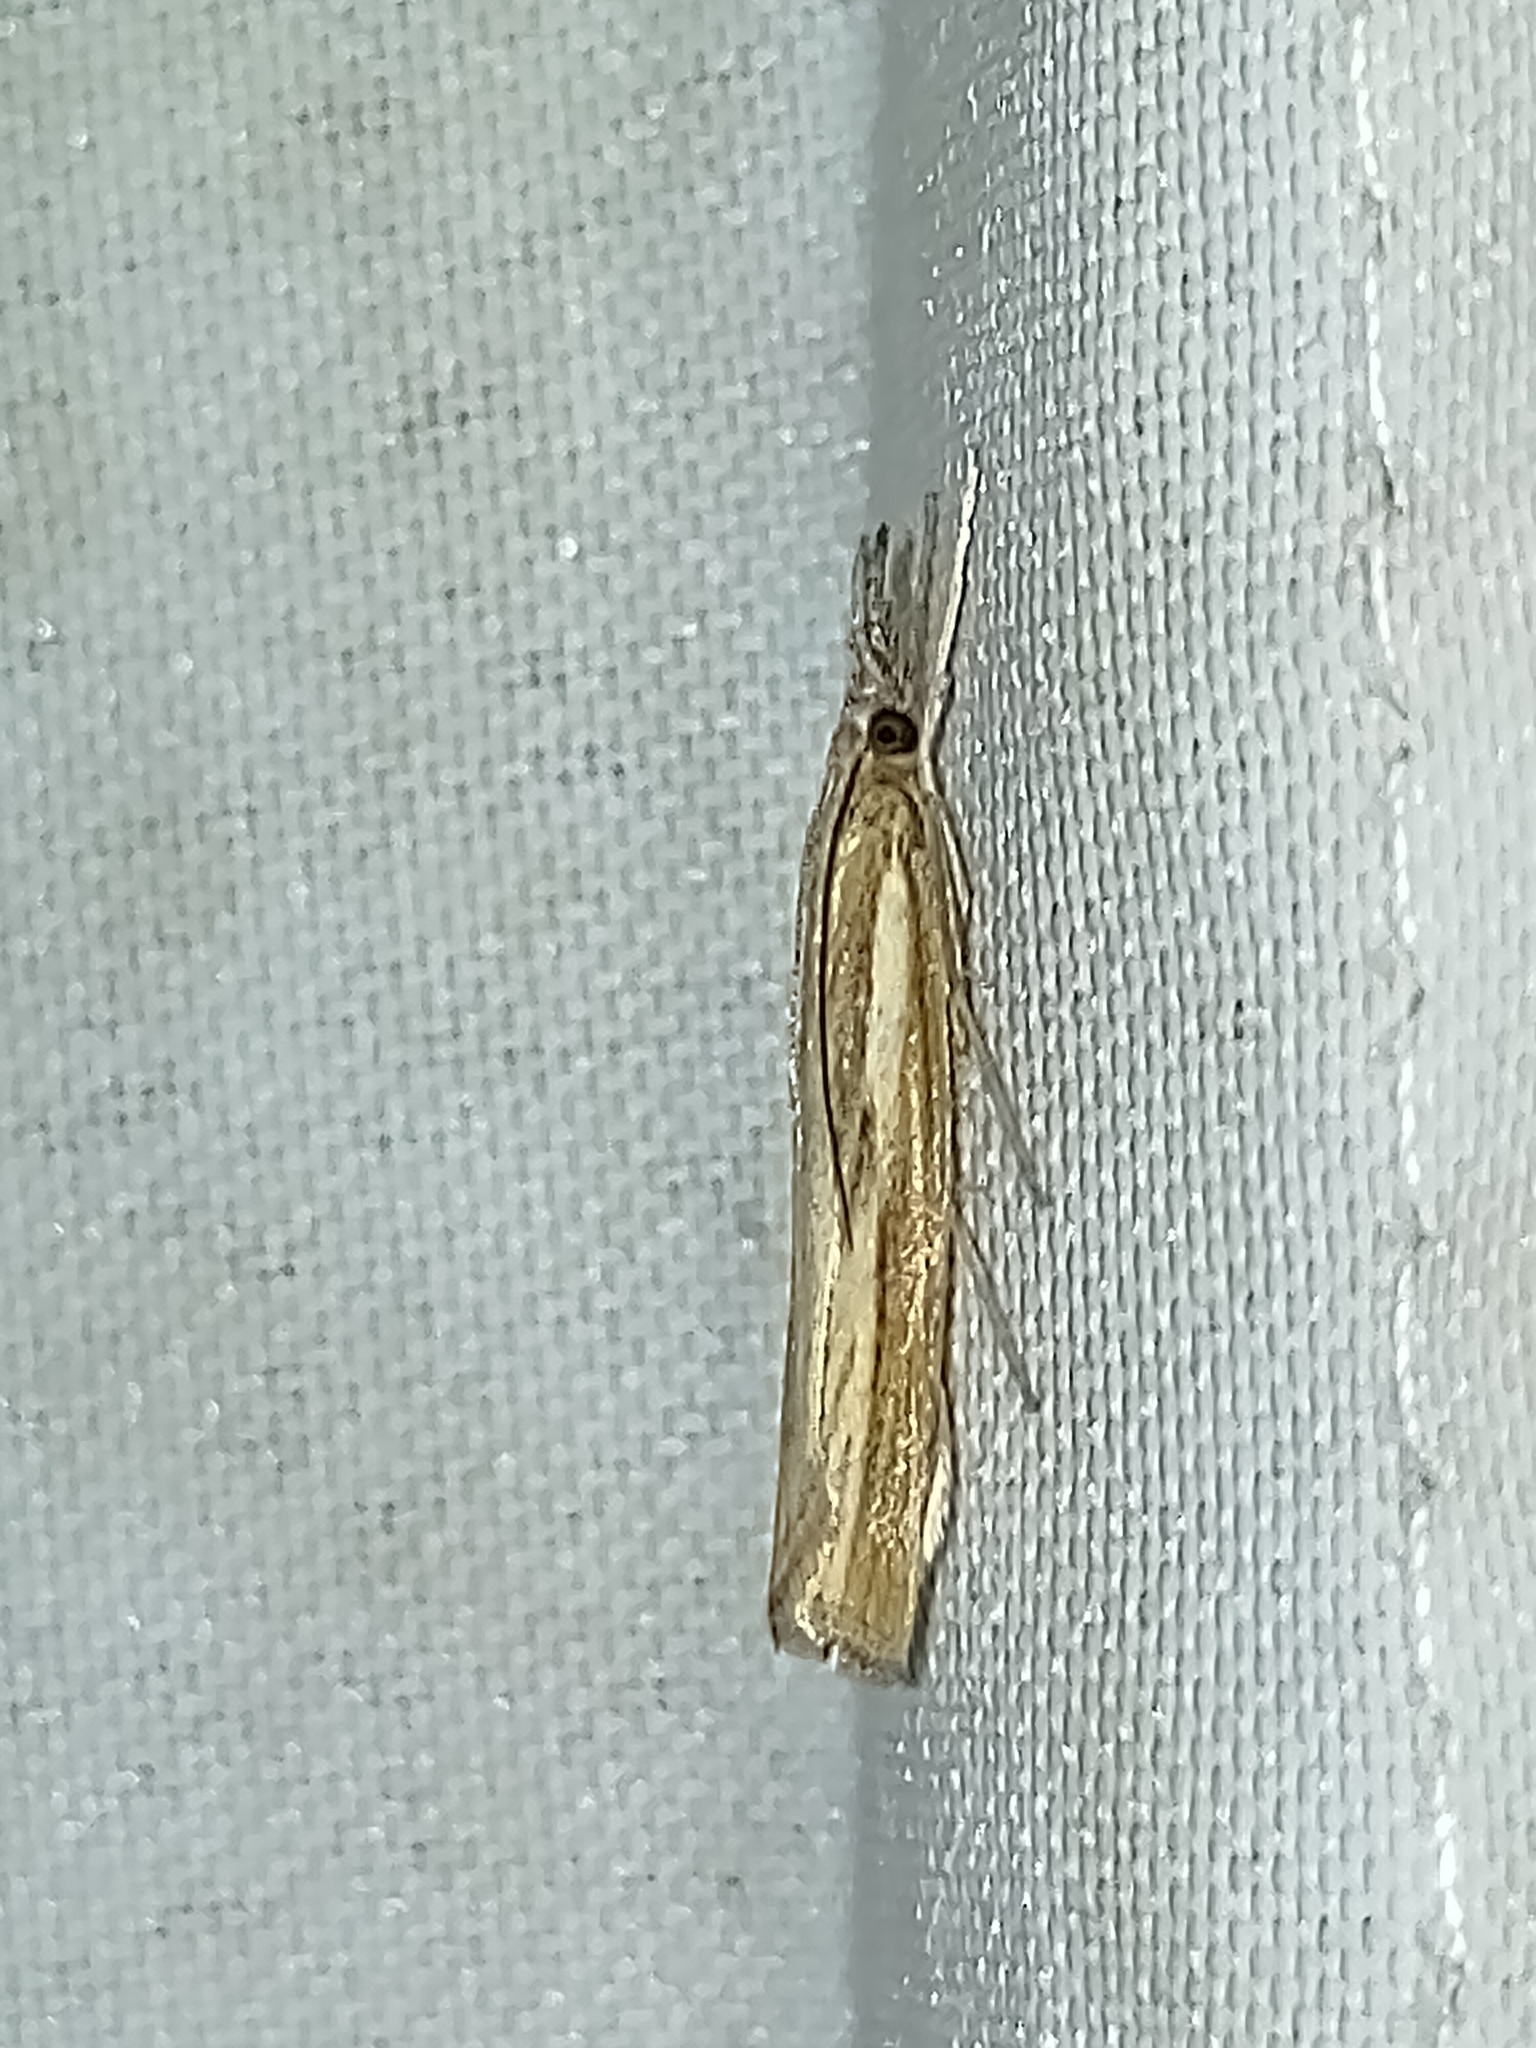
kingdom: Animalia
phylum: Arthropoda
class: Insecta
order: Lepidoptera
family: Crambidae
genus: Agriphila
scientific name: Agriphila tristellus
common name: Common grass-veneer
